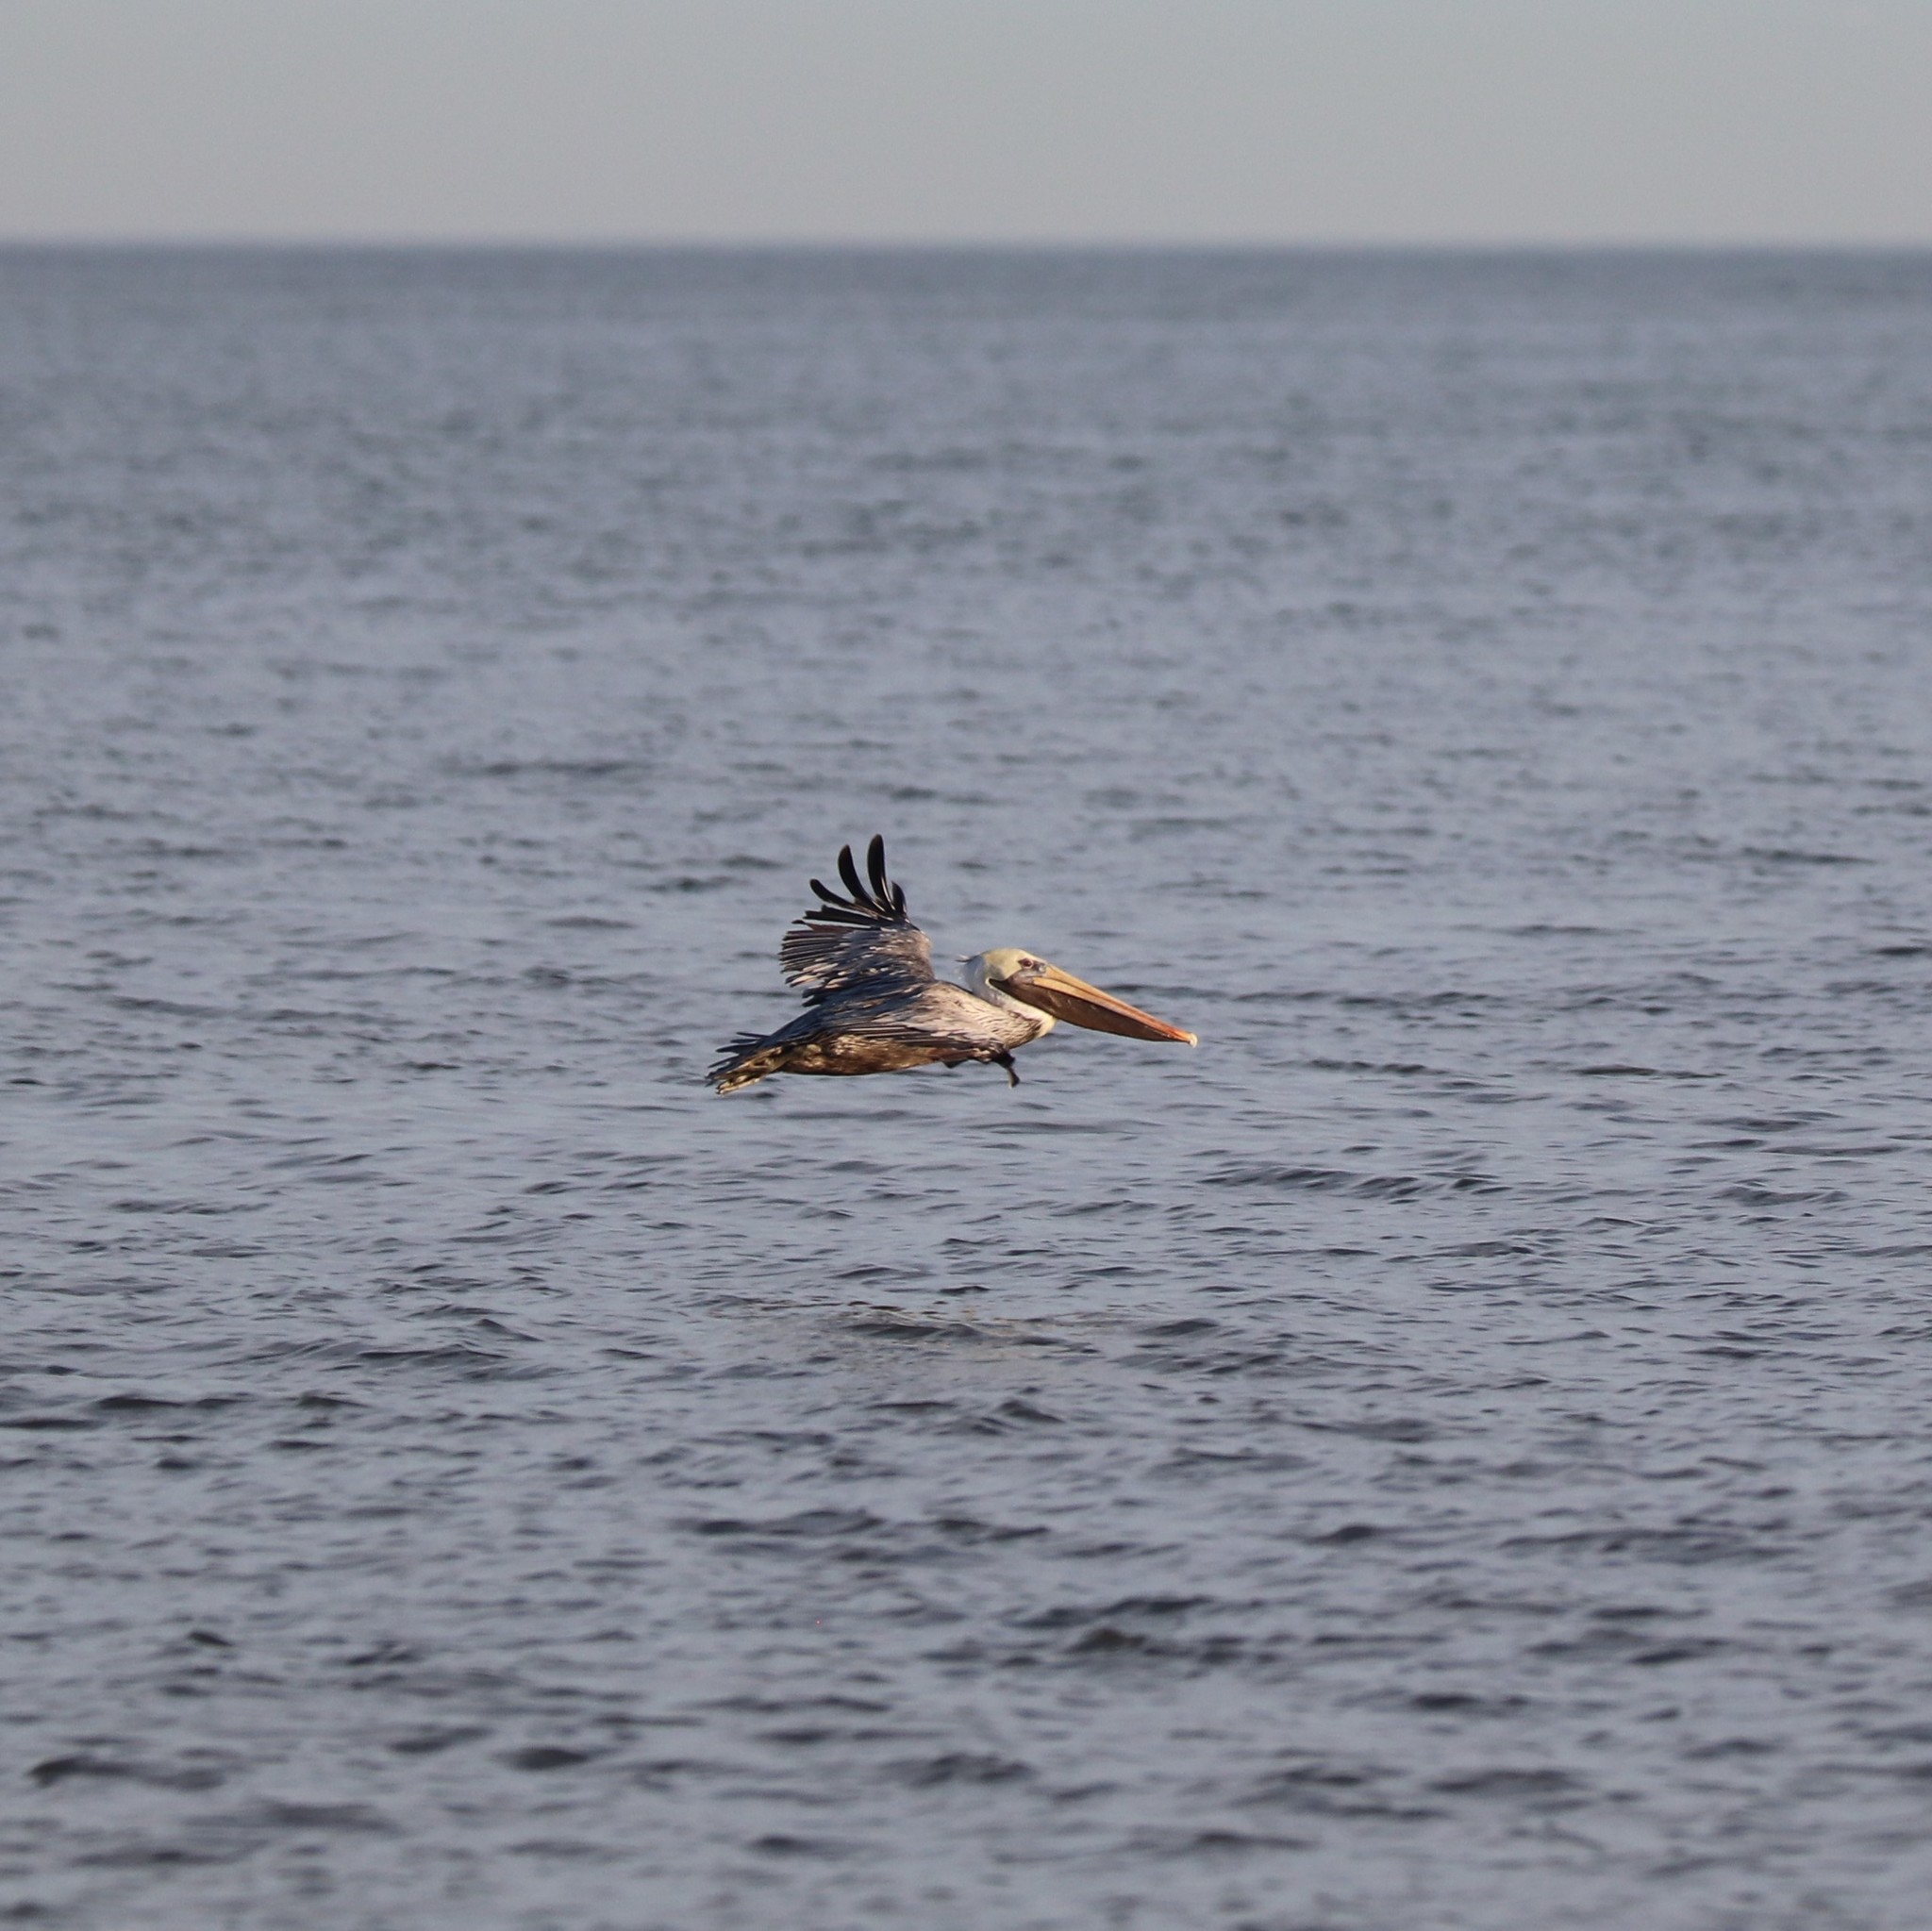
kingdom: Animalia
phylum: Chordata
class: Aves
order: Pelecaniformes
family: Pelecanidae
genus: Pelecanus
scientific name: Pelecanus occidentalis
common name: Brown pelican
